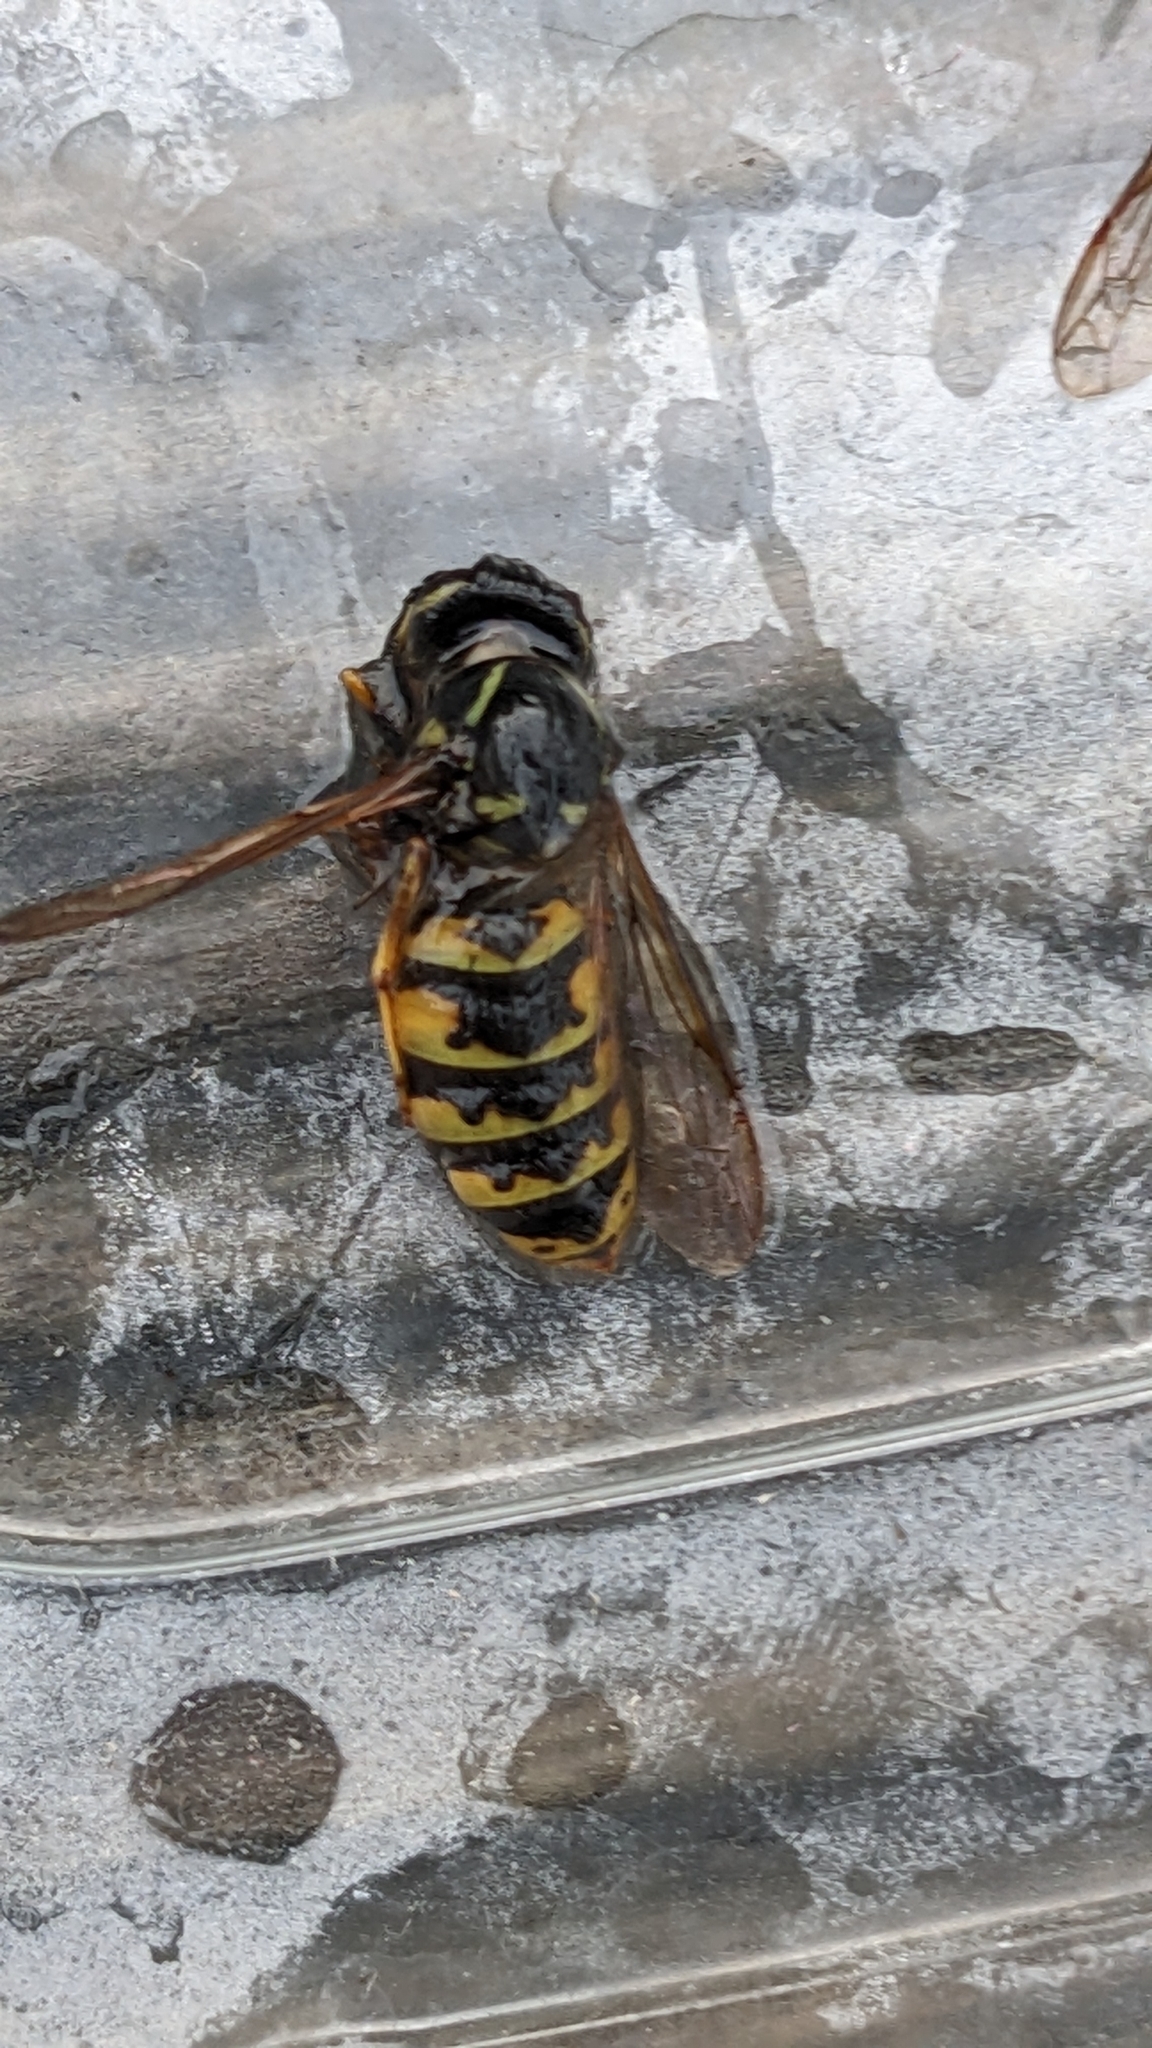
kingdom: Animalia
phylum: Arthropoda
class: Insecta
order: Hymenoptera
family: Vespidae
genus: Vespula
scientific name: Vespula vulgaris
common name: Common wasp
